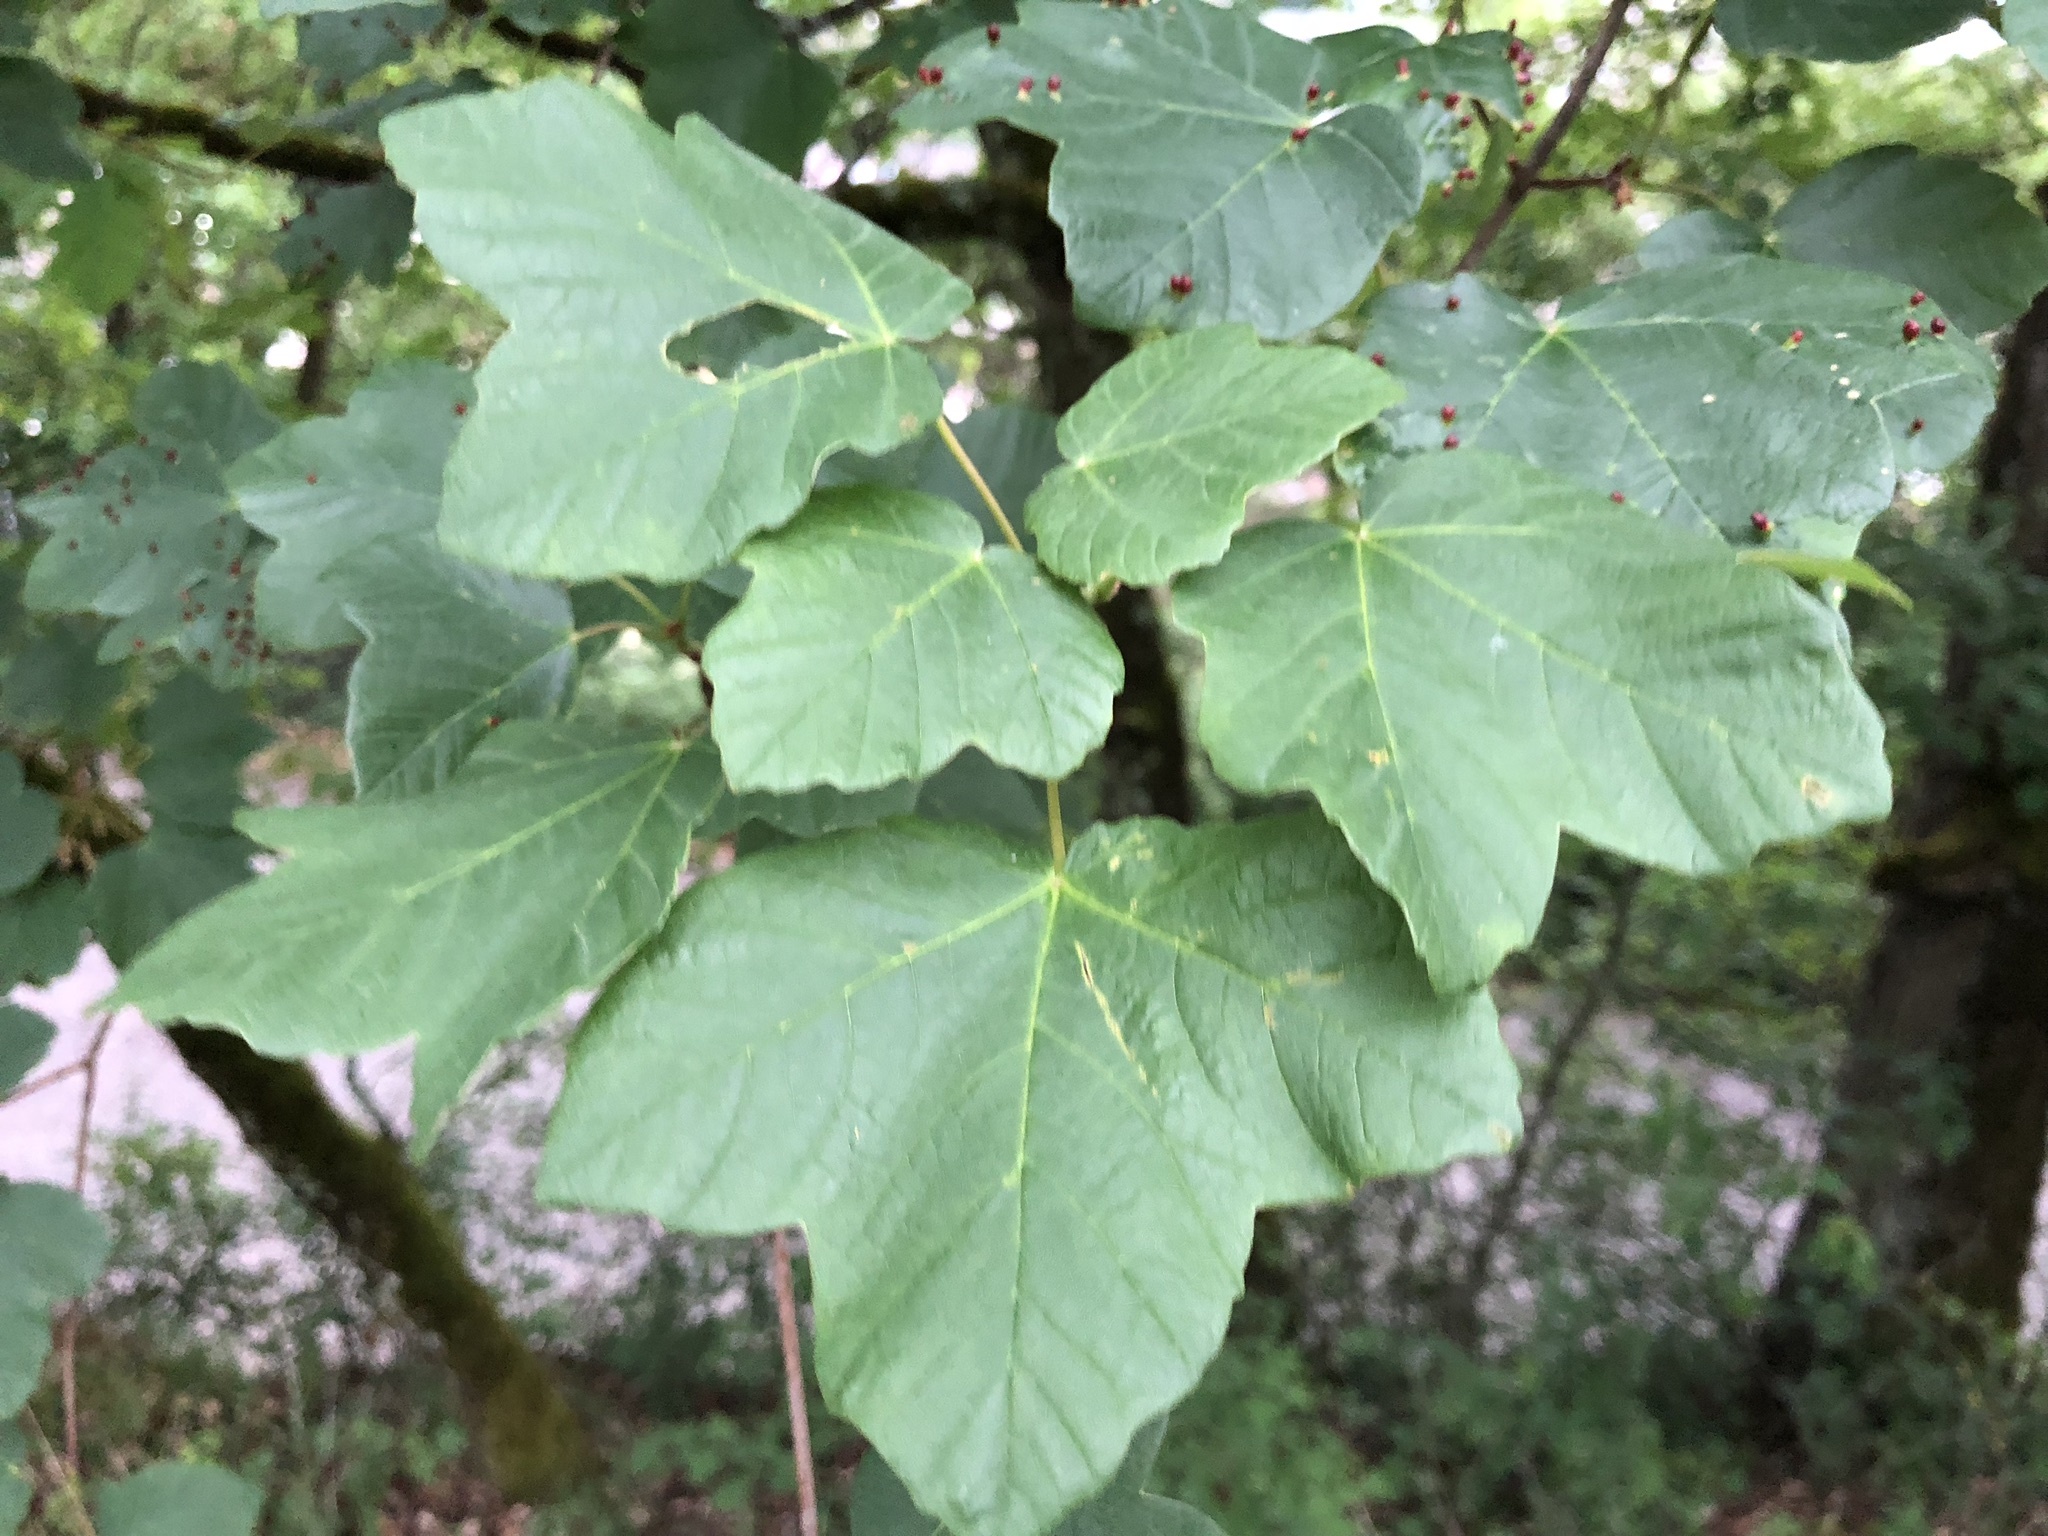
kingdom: Plantae
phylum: Tracheophyta
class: Magnoliopsida
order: Sapindales
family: Sapindaceae
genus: Acer
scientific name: Acer opalus
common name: Italian maple
